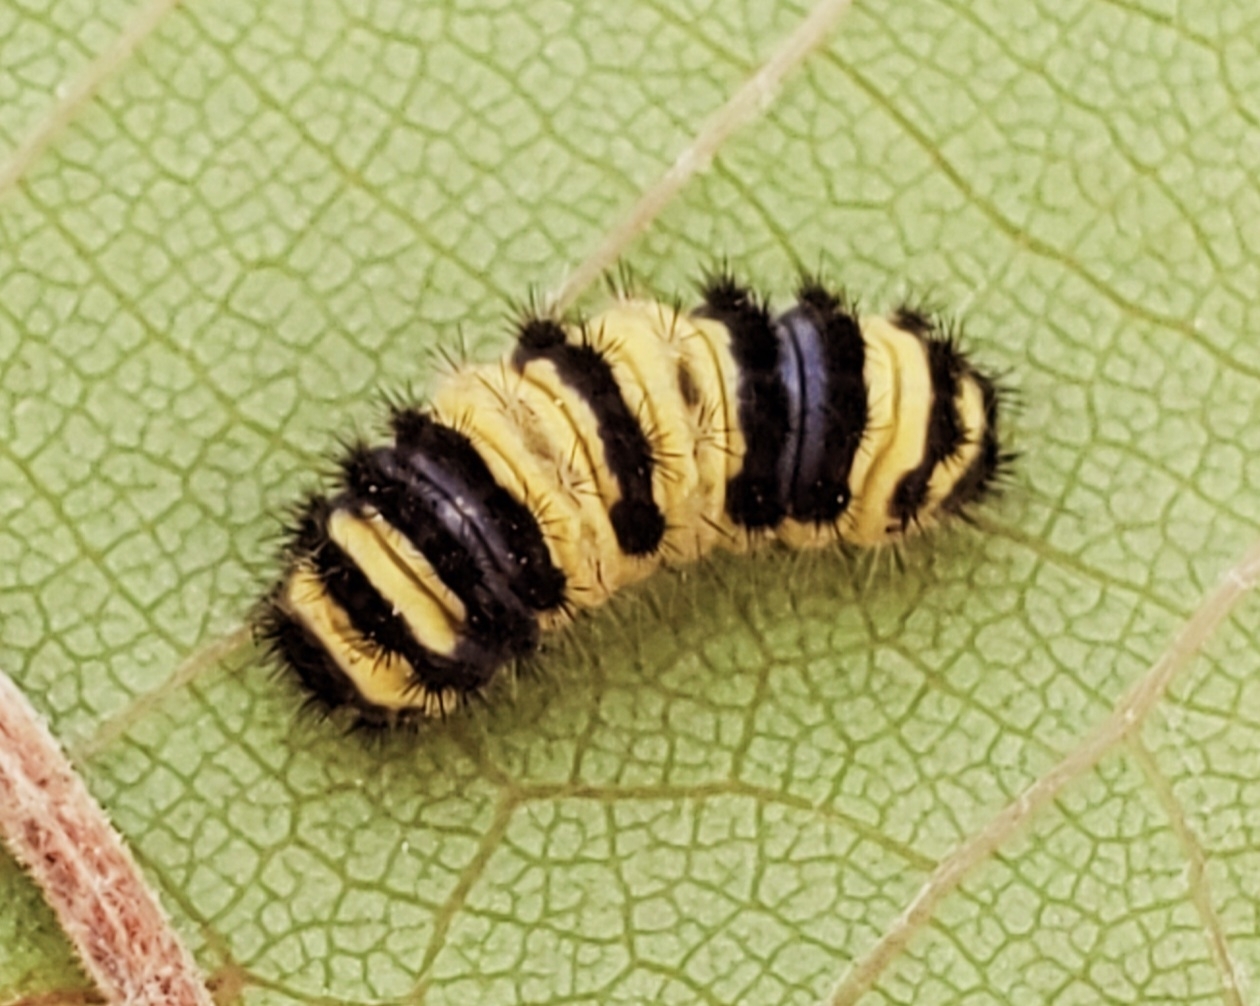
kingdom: Animalia
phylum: Arthropoda
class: Insecta
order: Lepidoptera
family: Zygaenidae
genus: Harrisina
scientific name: Harrisina metallica
